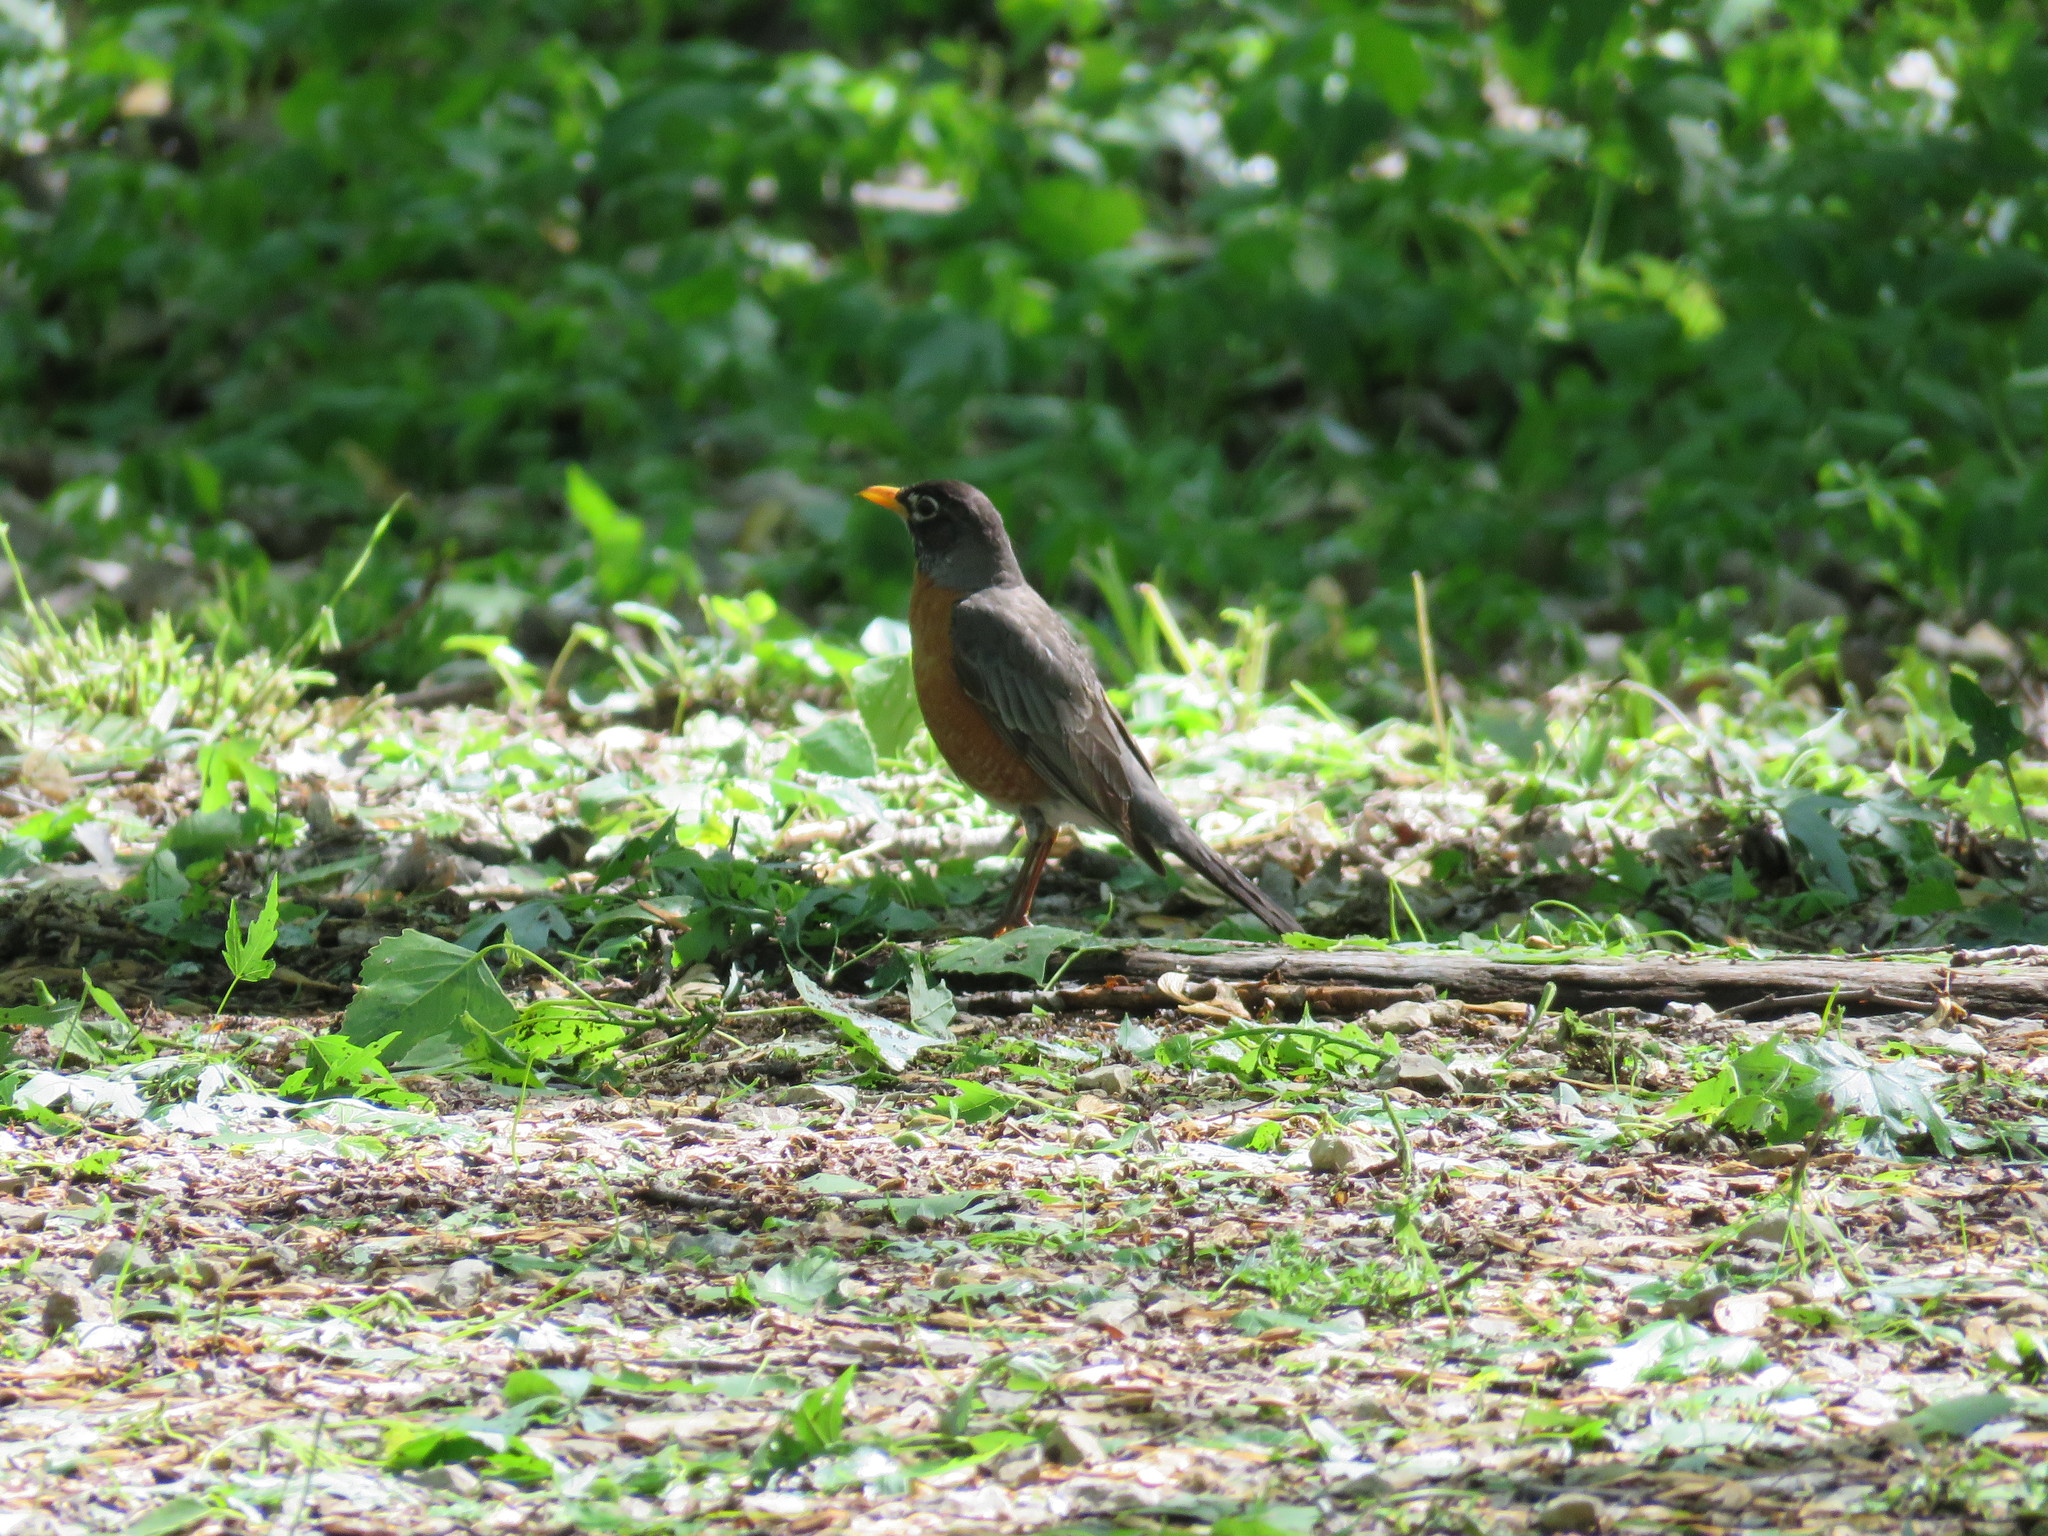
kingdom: Animalia
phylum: Chordata
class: Aves
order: Passeriformes
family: Turdidae
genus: Turdus
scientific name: Turdus migratorius
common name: American robin
